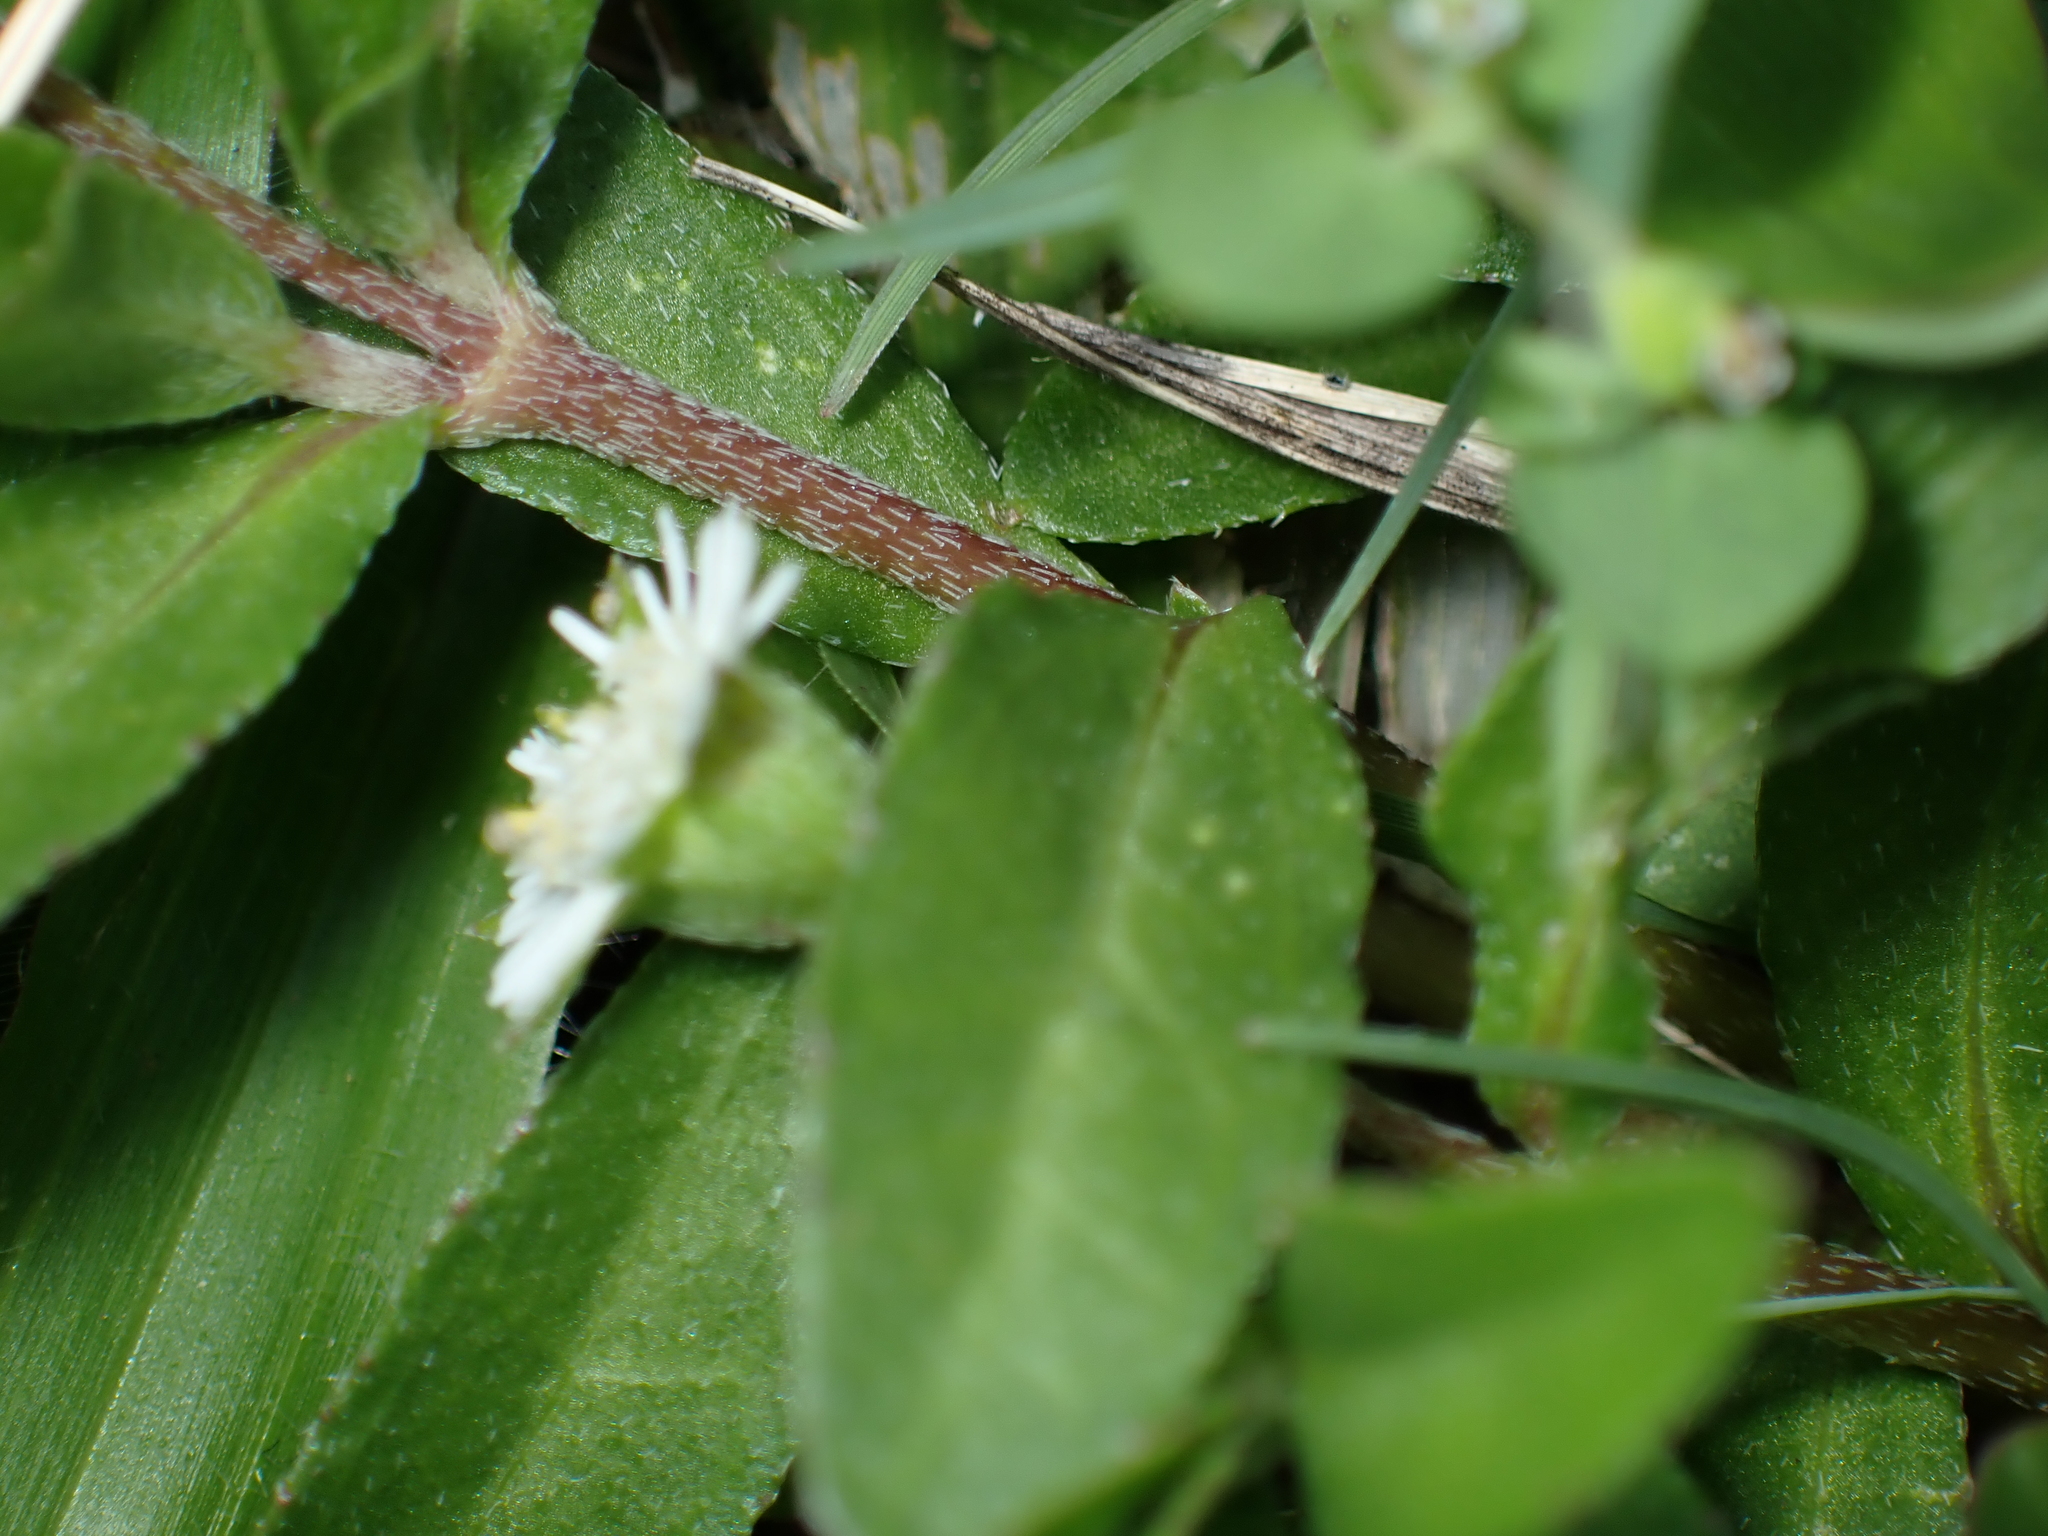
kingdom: Plantae
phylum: Tracheophyta
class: Magnoliopsida
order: Asterales
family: Asteraceae
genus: Eclipta
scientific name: Eclipta prostrata
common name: False daisy
